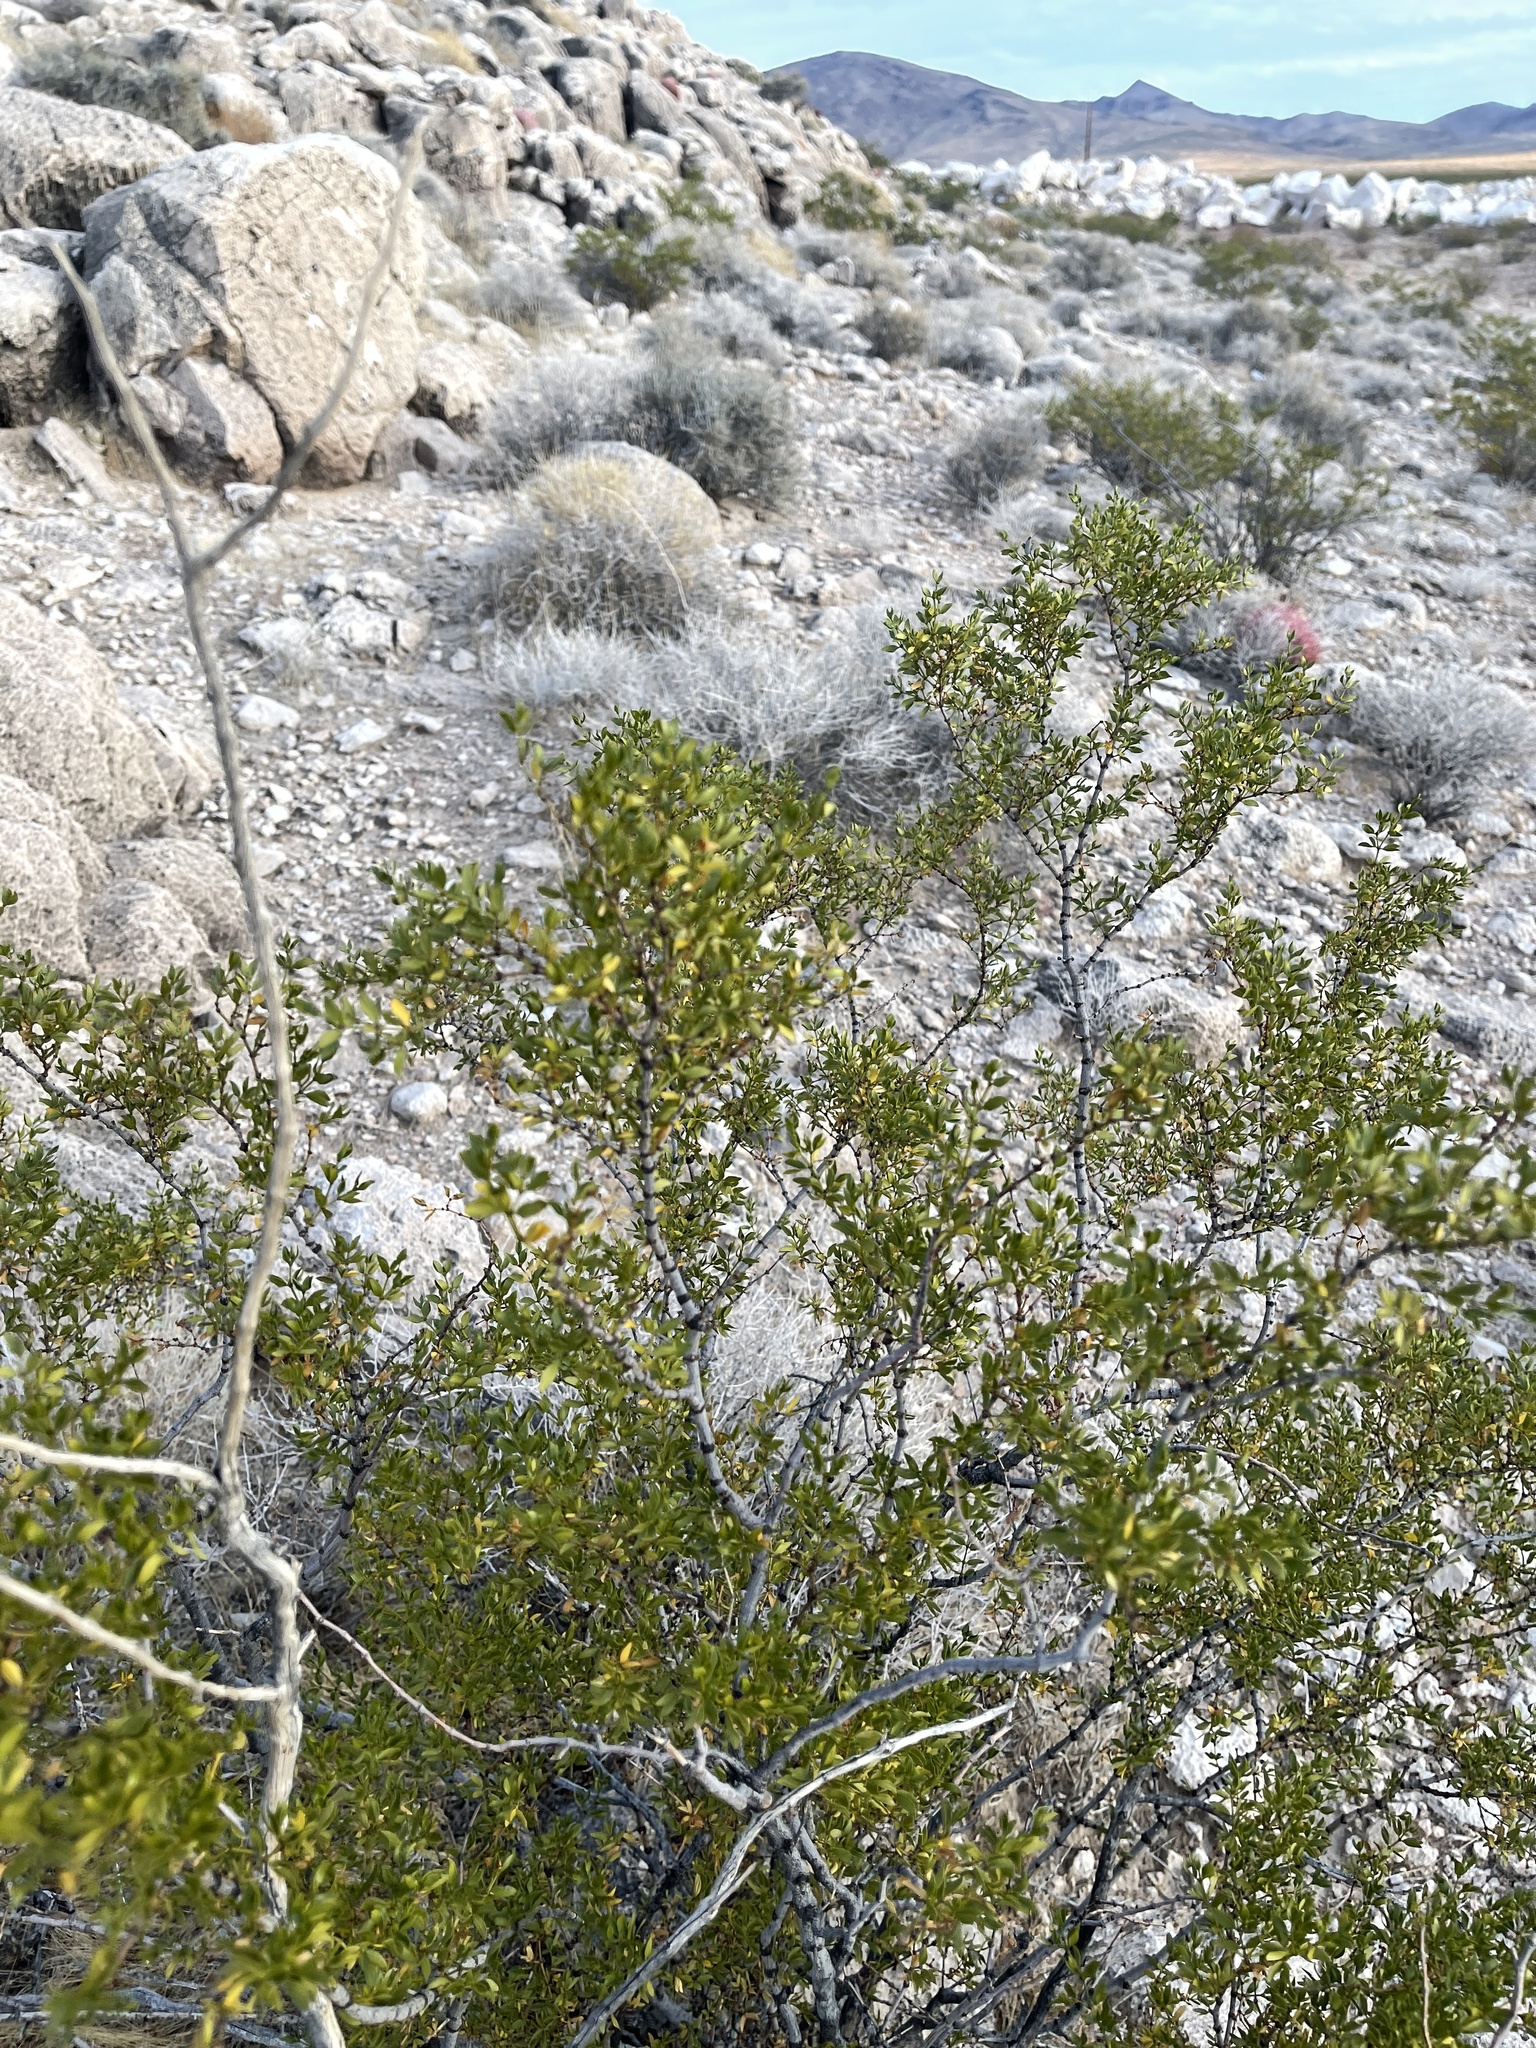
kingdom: Plantae
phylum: Tracheophyta
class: Magnoliopsida
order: Zygophyllales
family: Zygophyllaceae
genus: Larrea
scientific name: Larrea tridentata
